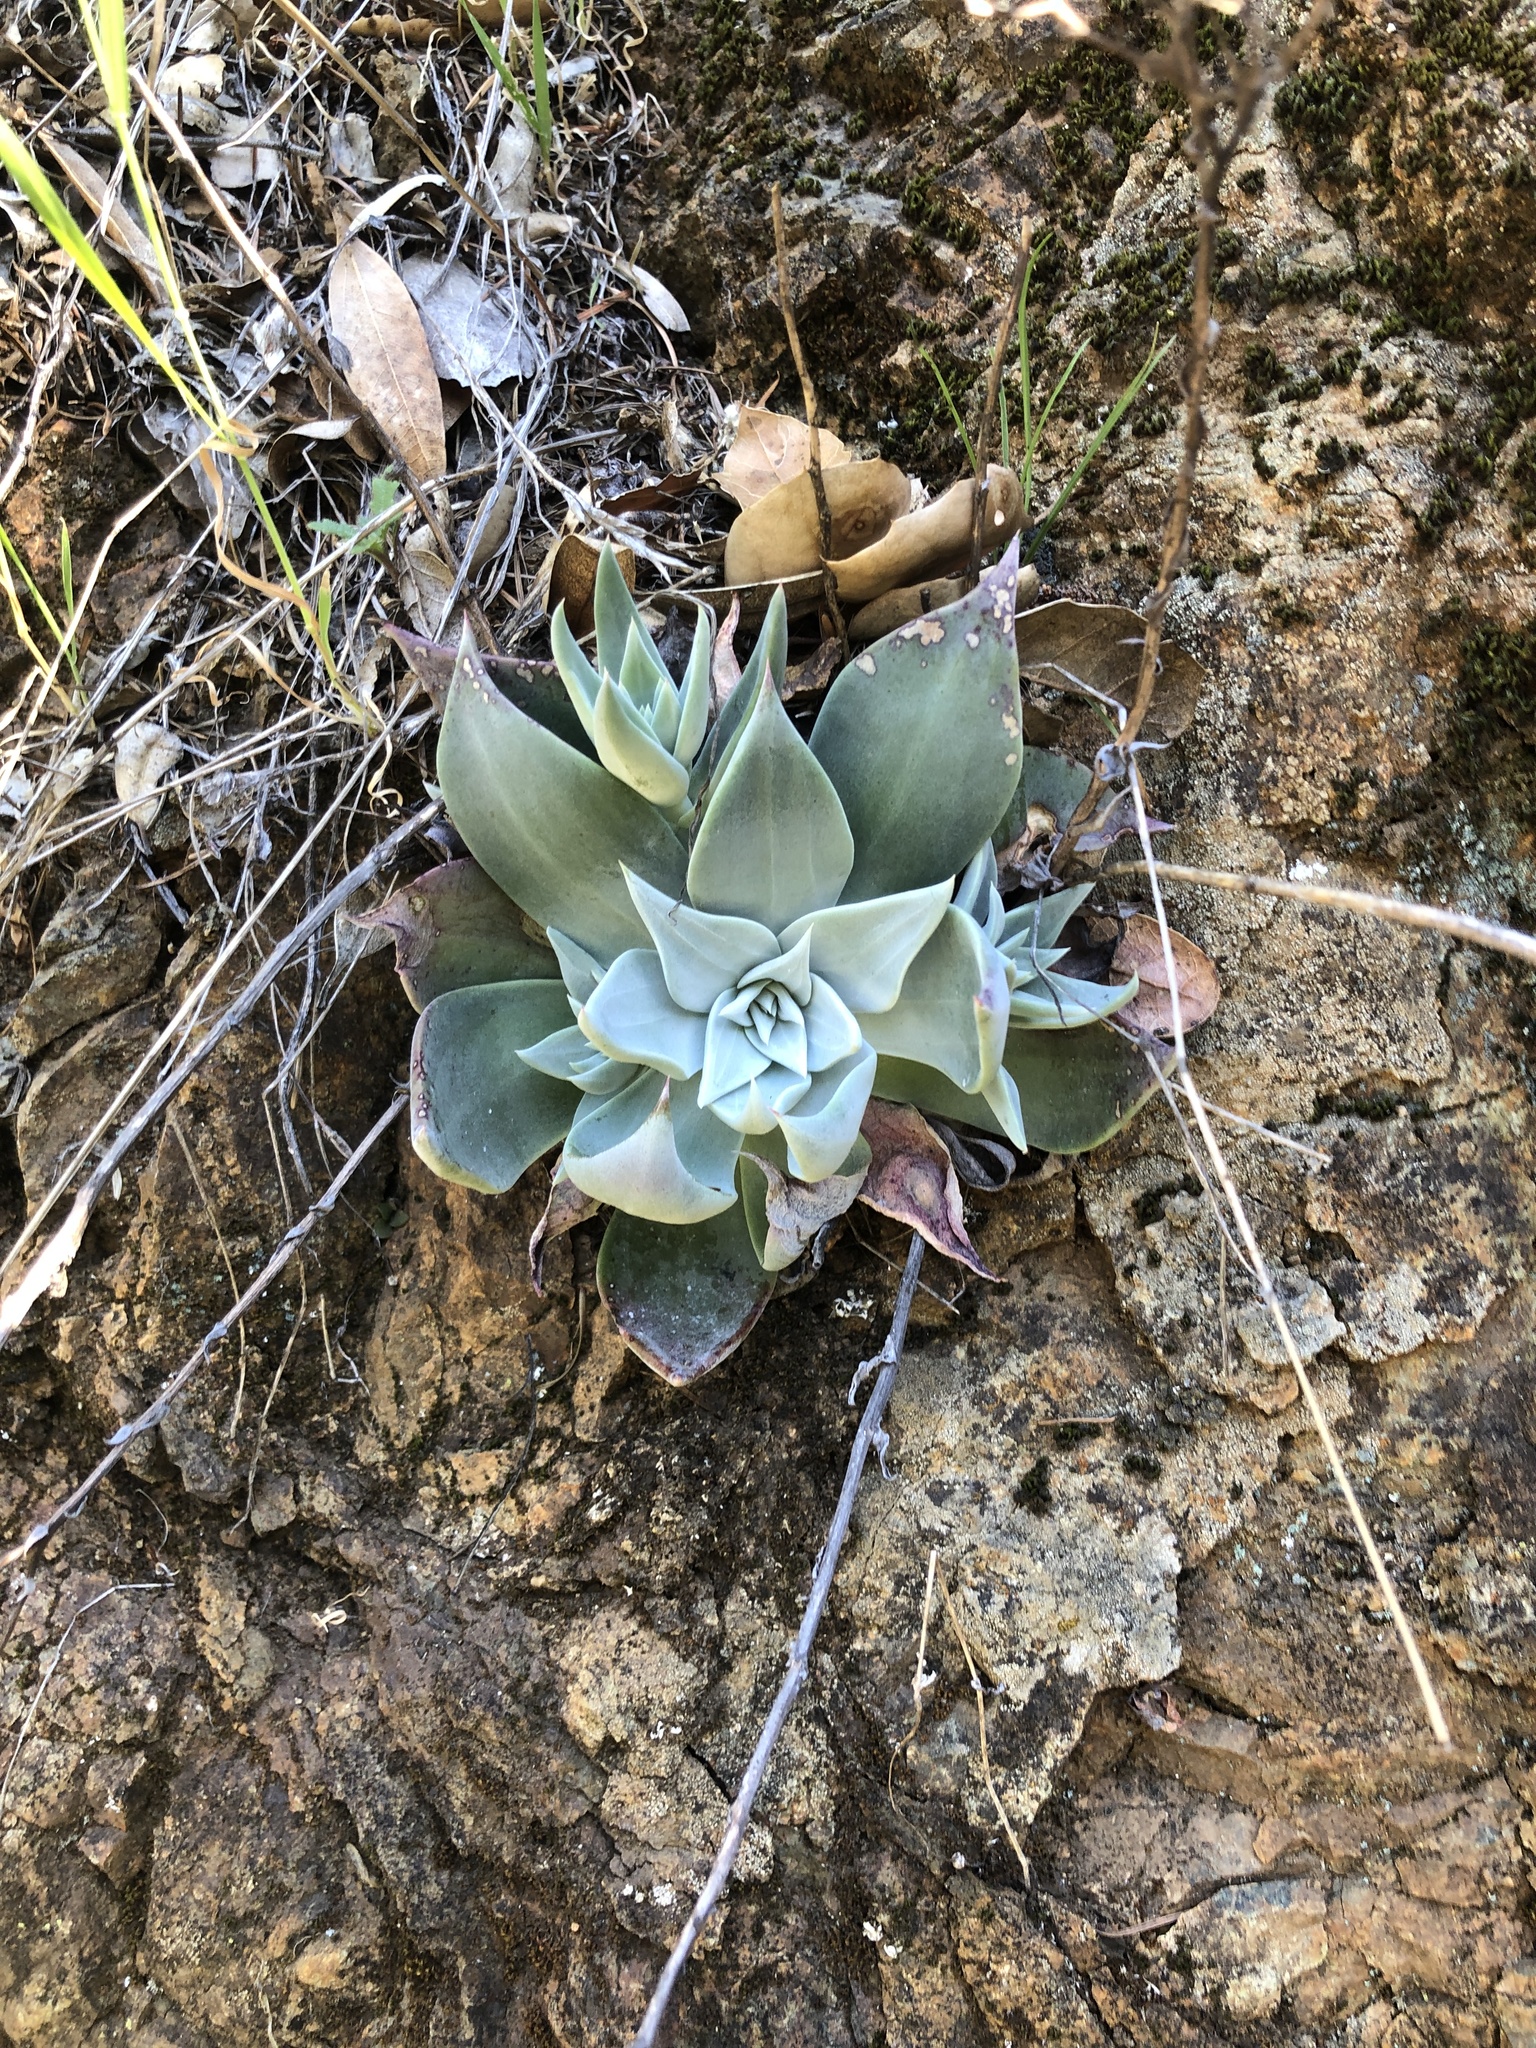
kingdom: Plantae
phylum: Tracheophyta
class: Magnoliopsida
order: Saxifragales
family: Crassulaceae
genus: Dudleya
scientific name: Dudleya cymosa
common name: Canyon dudleya
